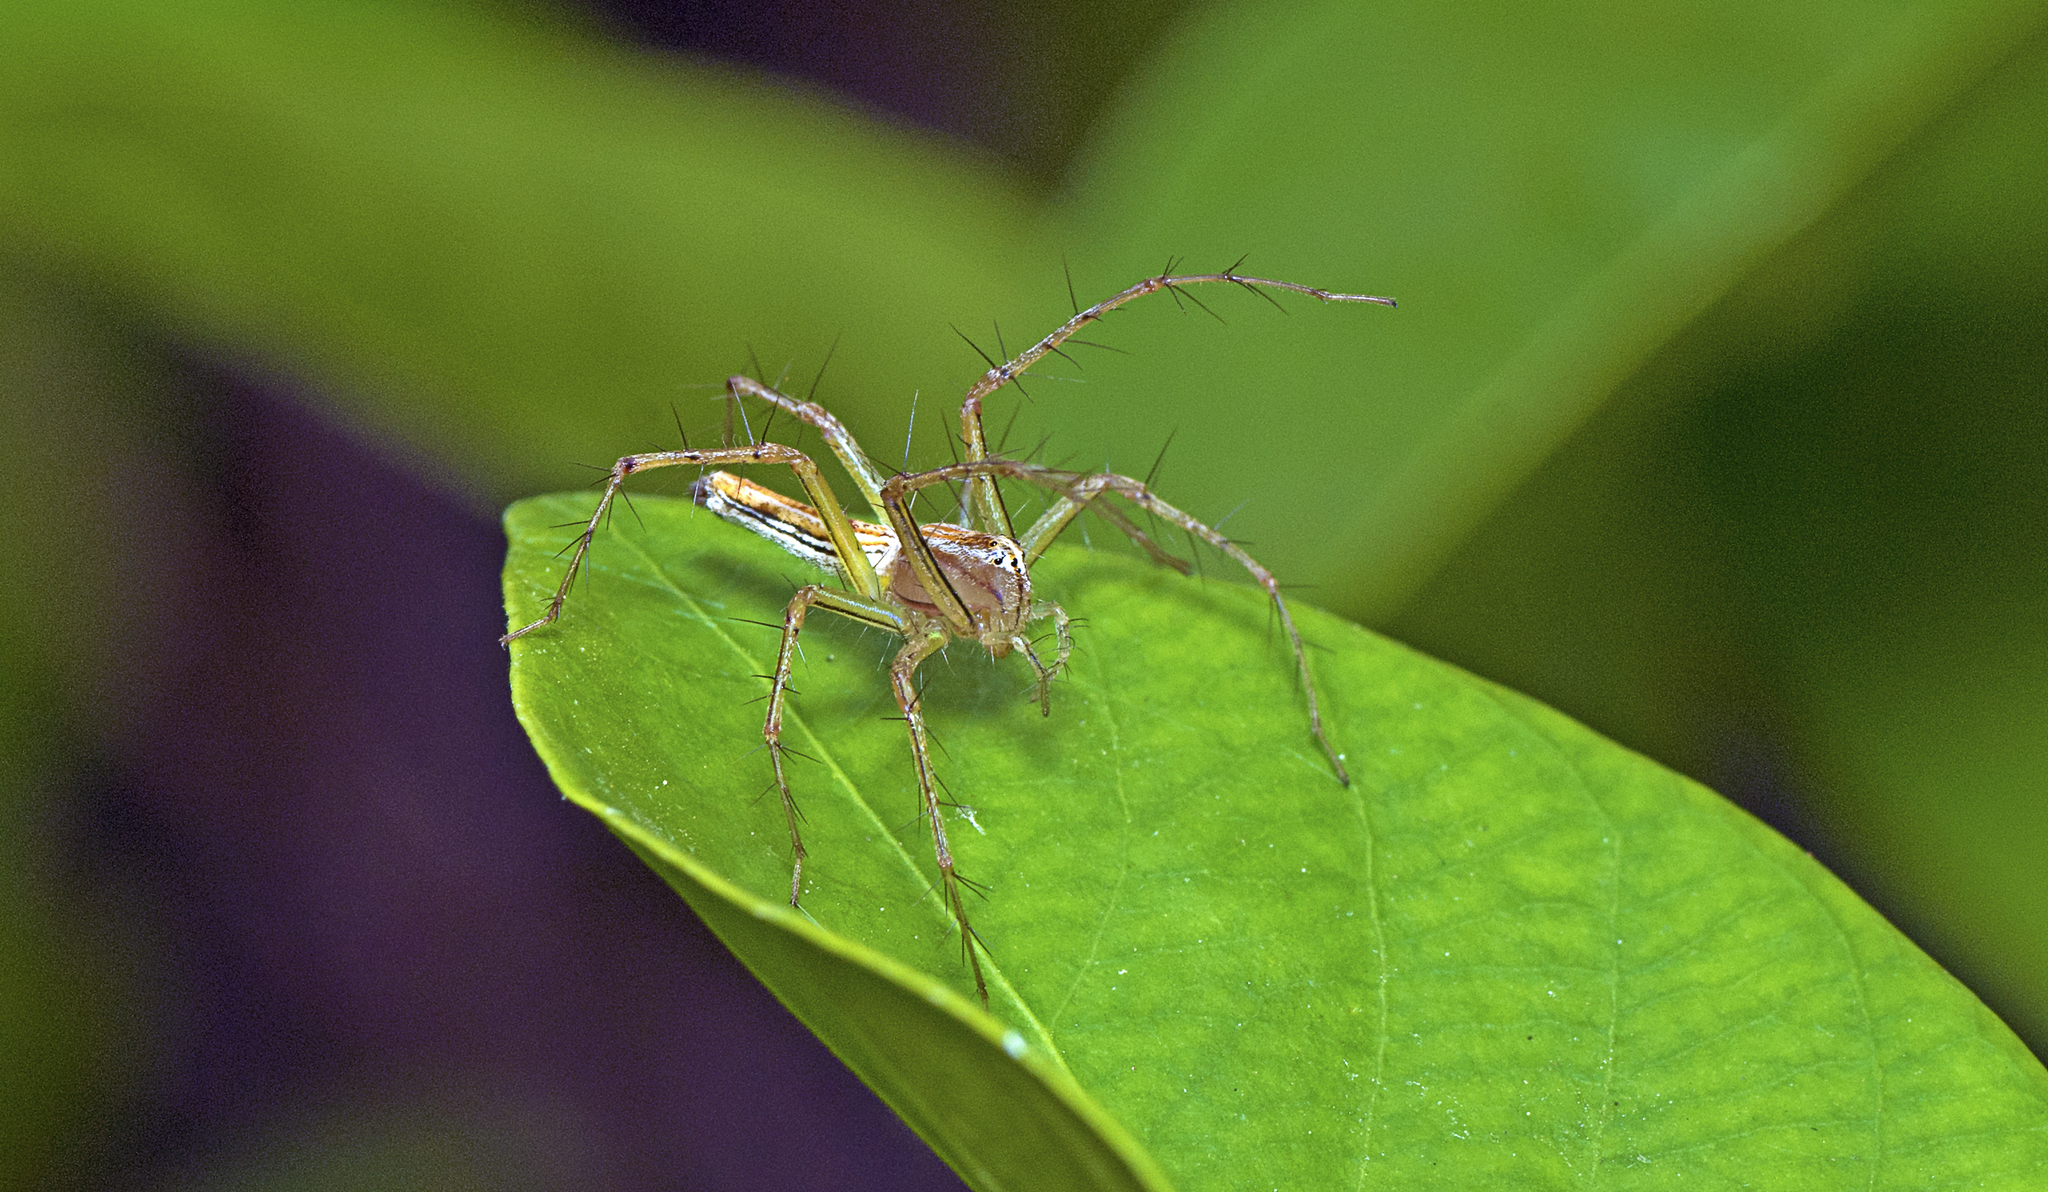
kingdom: Animalia
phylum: Arthropoda
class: Arachnida
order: Araneae
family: Oxyopidae
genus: Oxyopes
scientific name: Oxyopes macilentus
